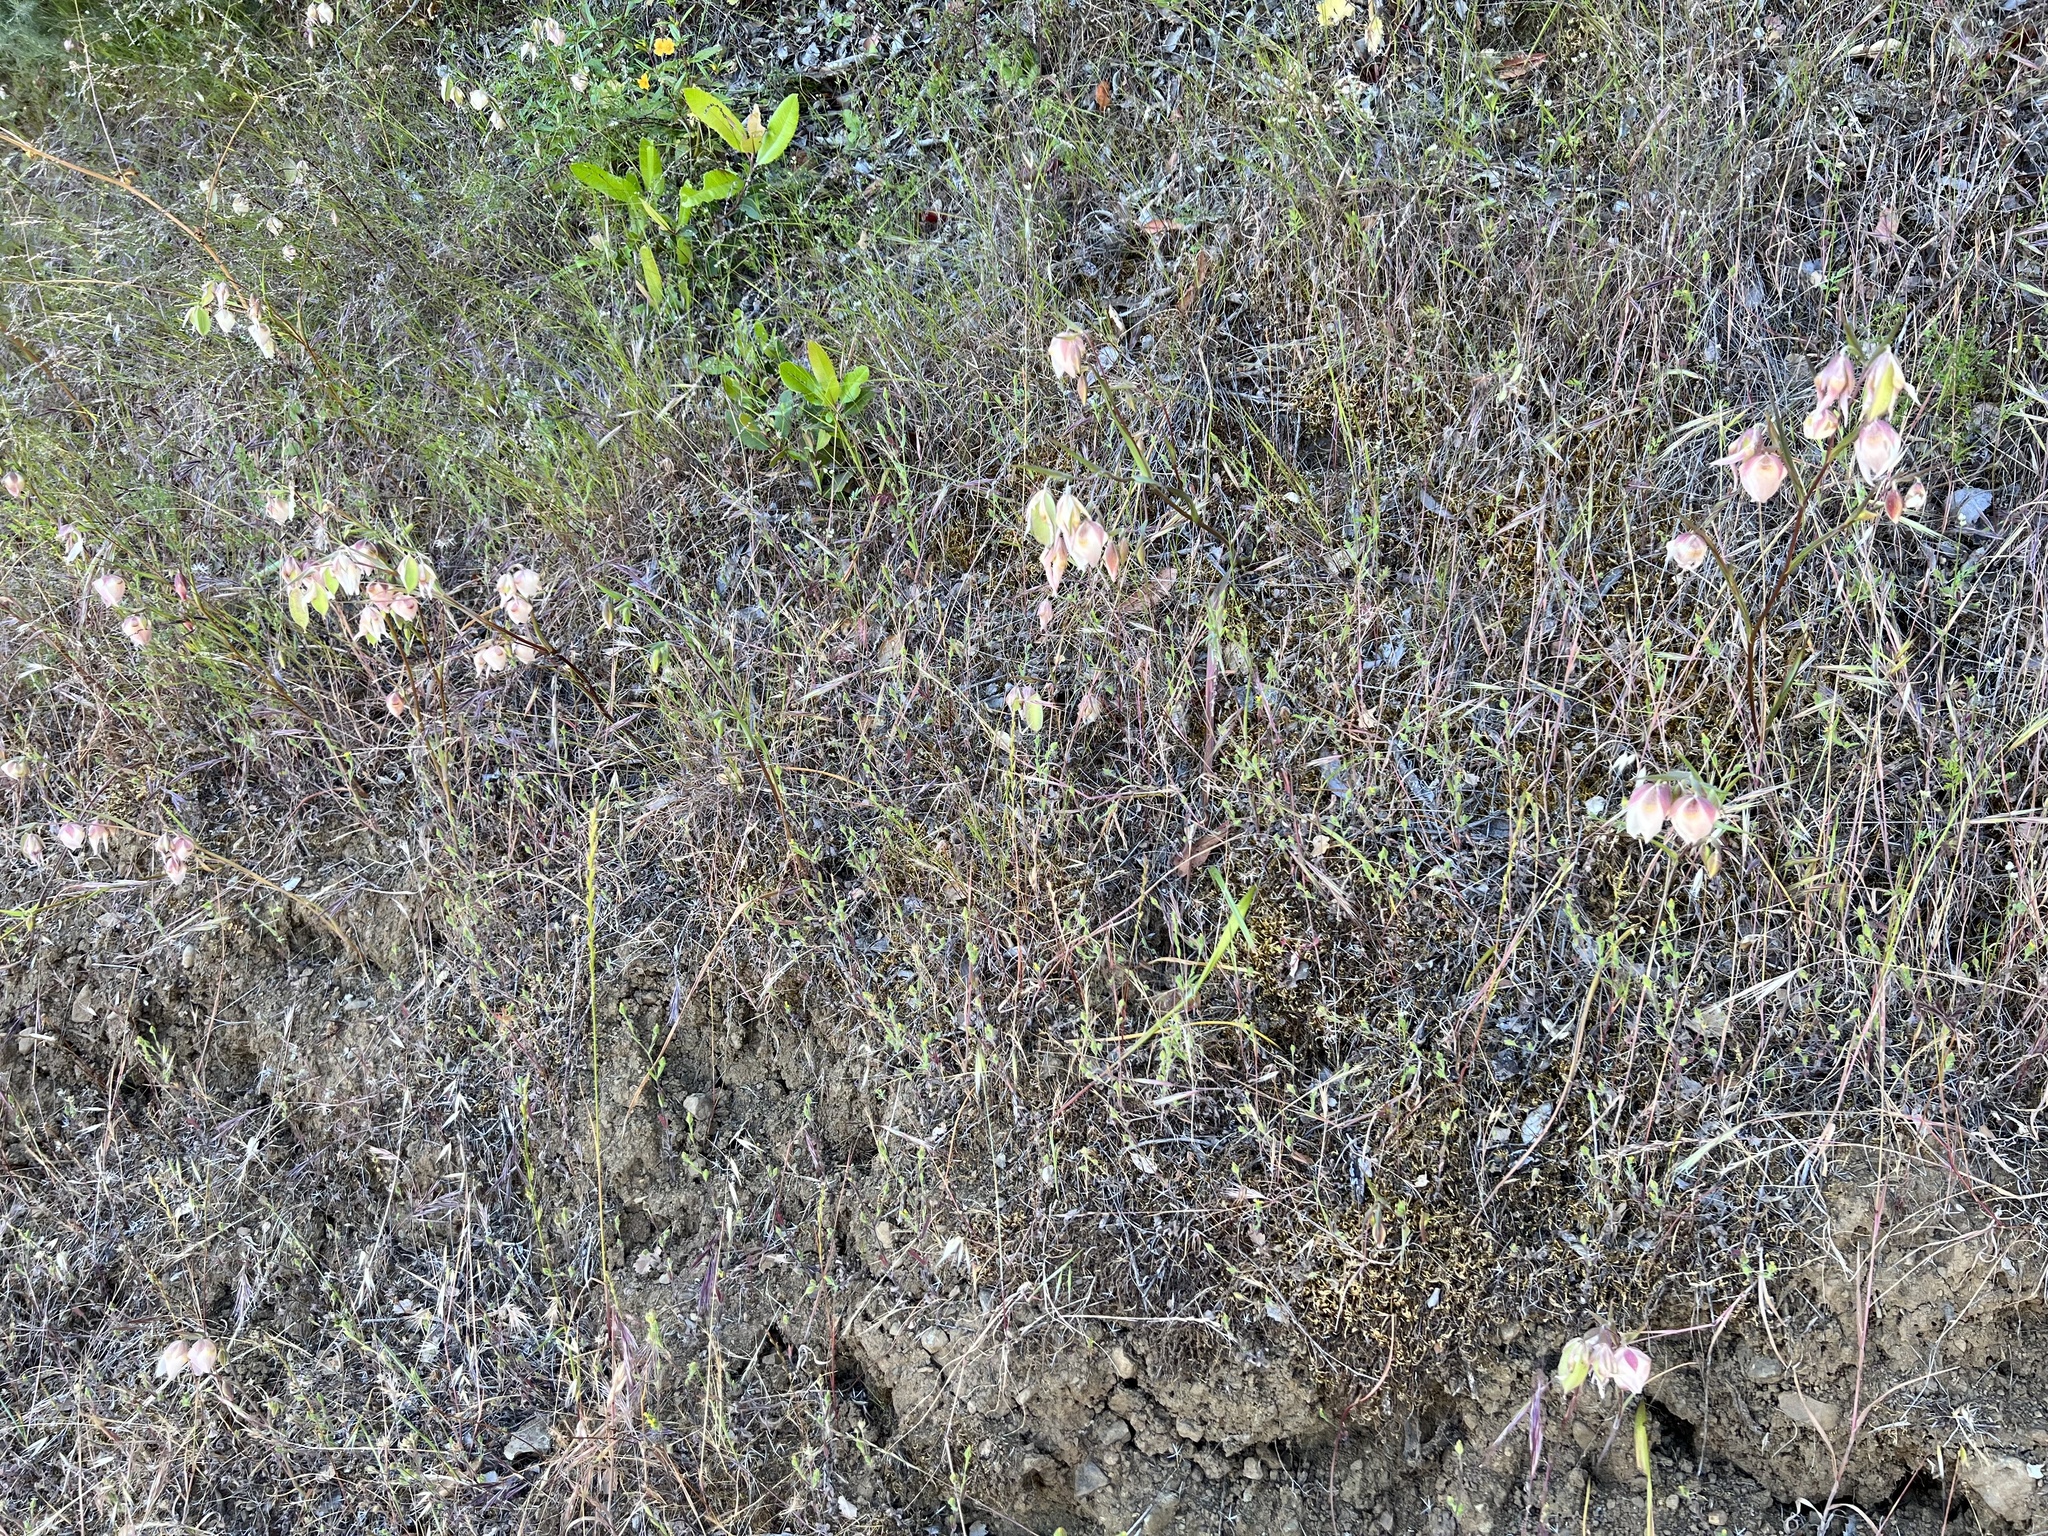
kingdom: Plantae
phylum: Tracheophyta
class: Liliopsida
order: Liliales
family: Liliaceae
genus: Calochortus
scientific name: Calochortus albus
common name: Fairy-lantern
